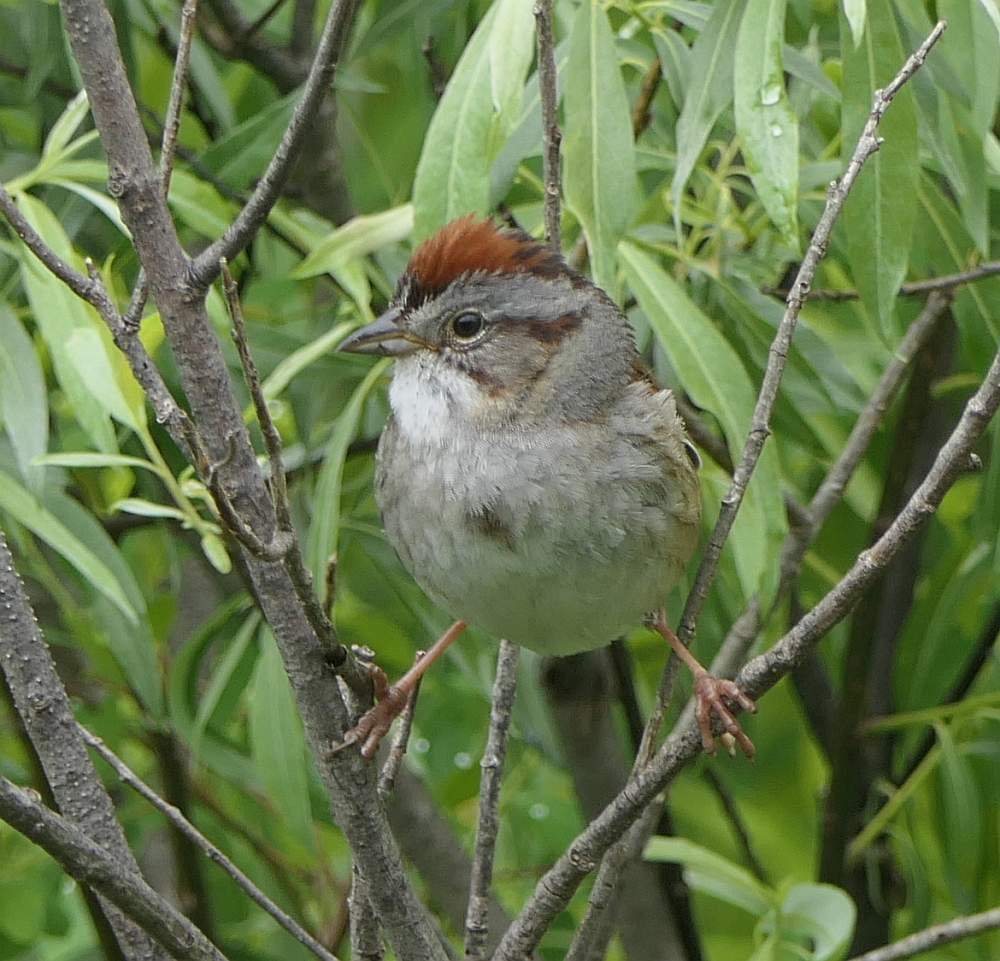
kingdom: Animalia
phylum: Chordata
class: Aves
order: Passeriformes
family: Passerellidae
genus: Melospiza
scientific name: Melospiza georgiana
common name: Swamp sparrow
